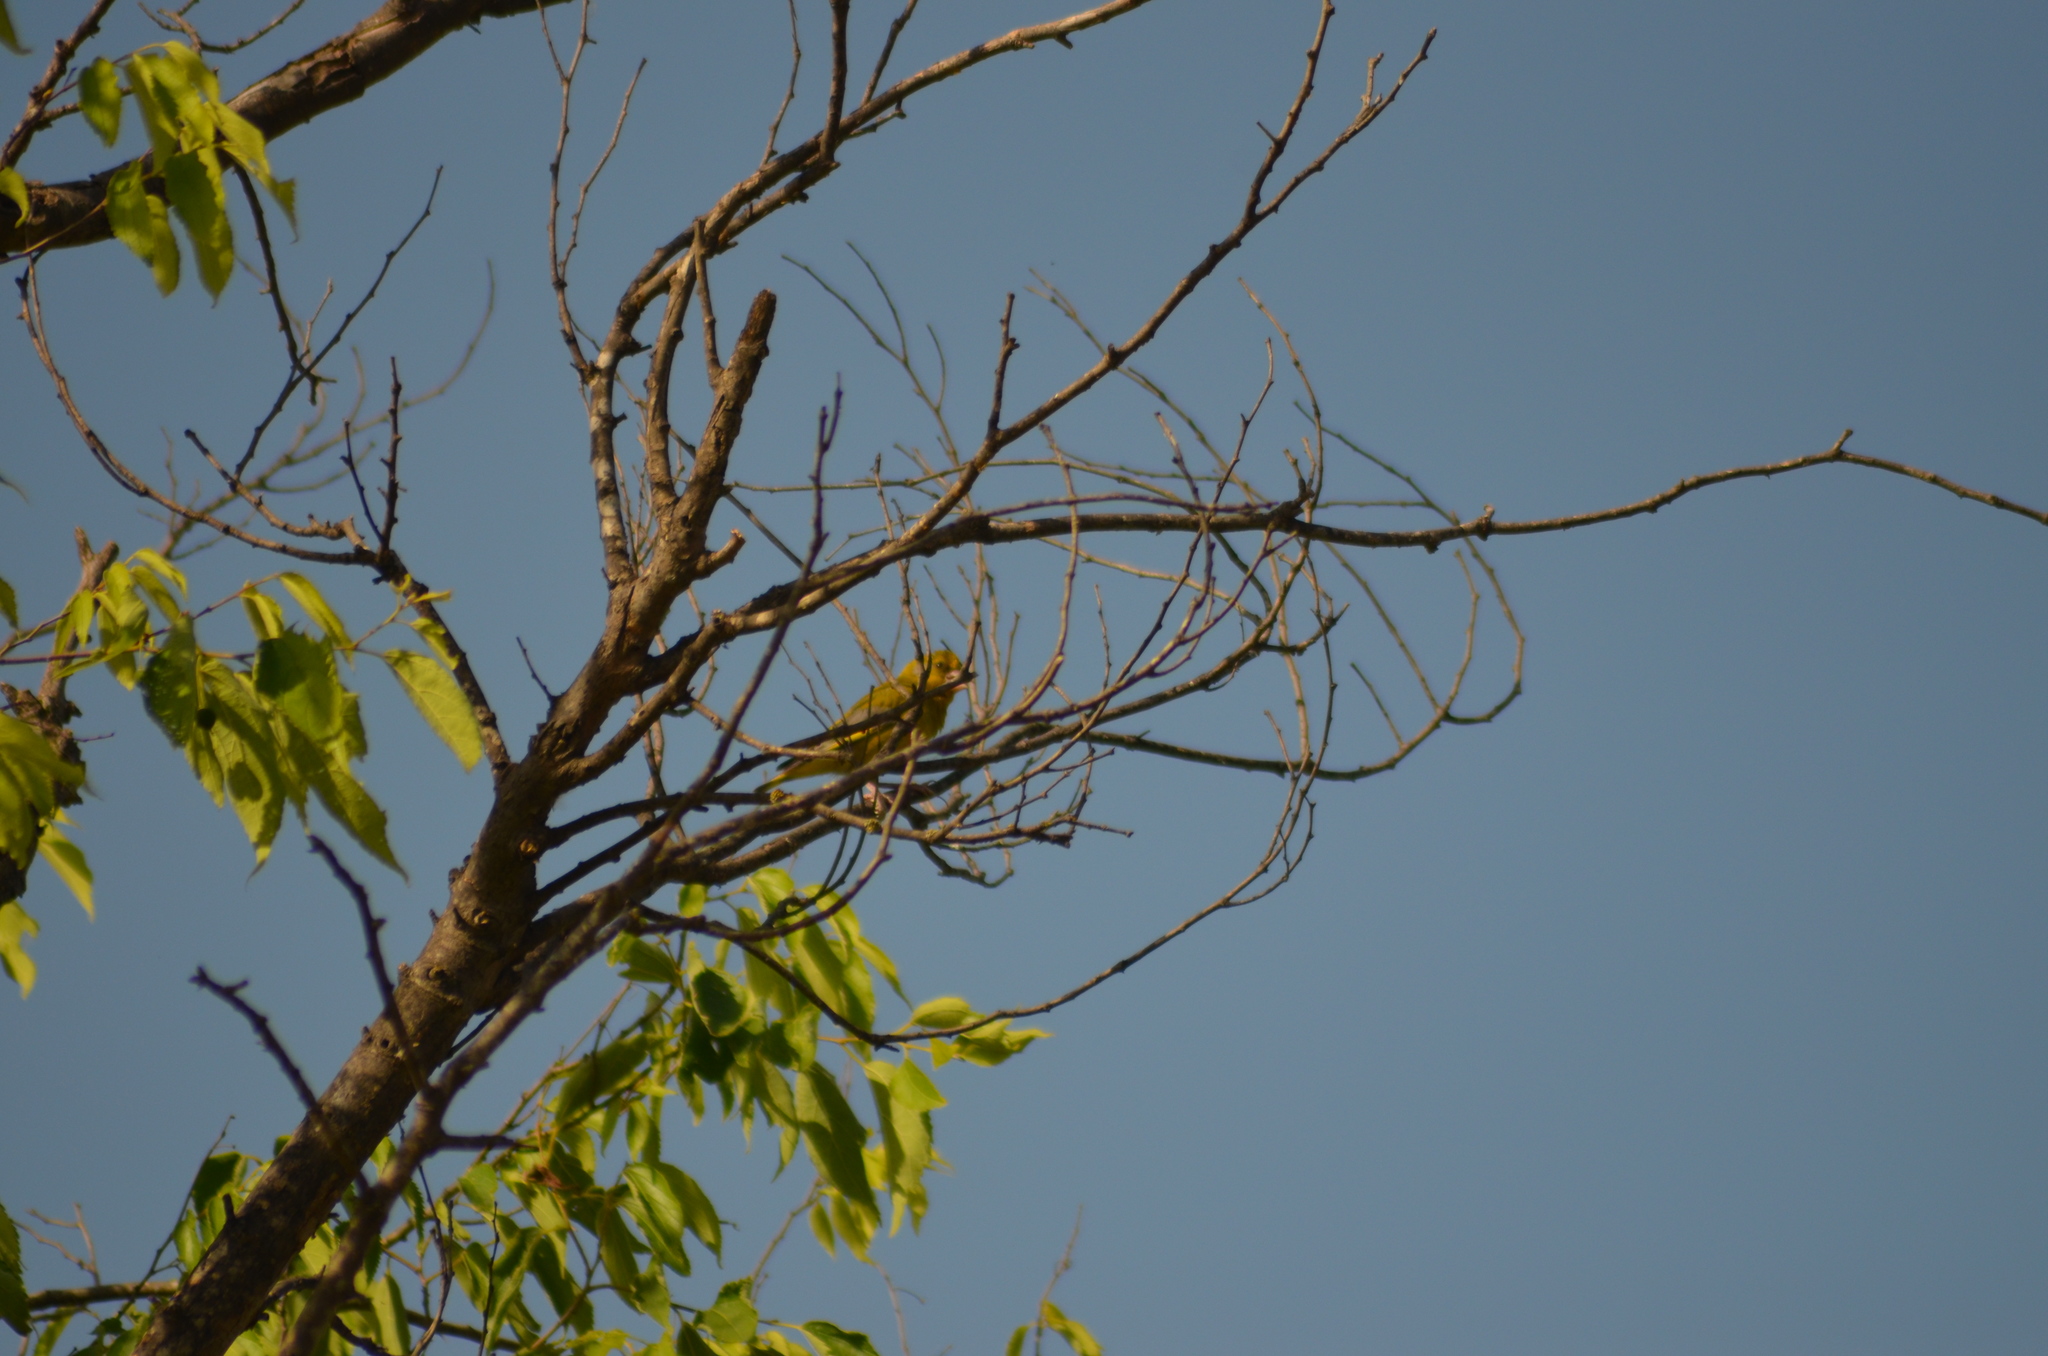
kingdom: Plantae
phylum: Tracheophyta
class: Liliopsida
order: Poales
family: Poaceae
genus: Chloris
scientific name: Chloris chloris
